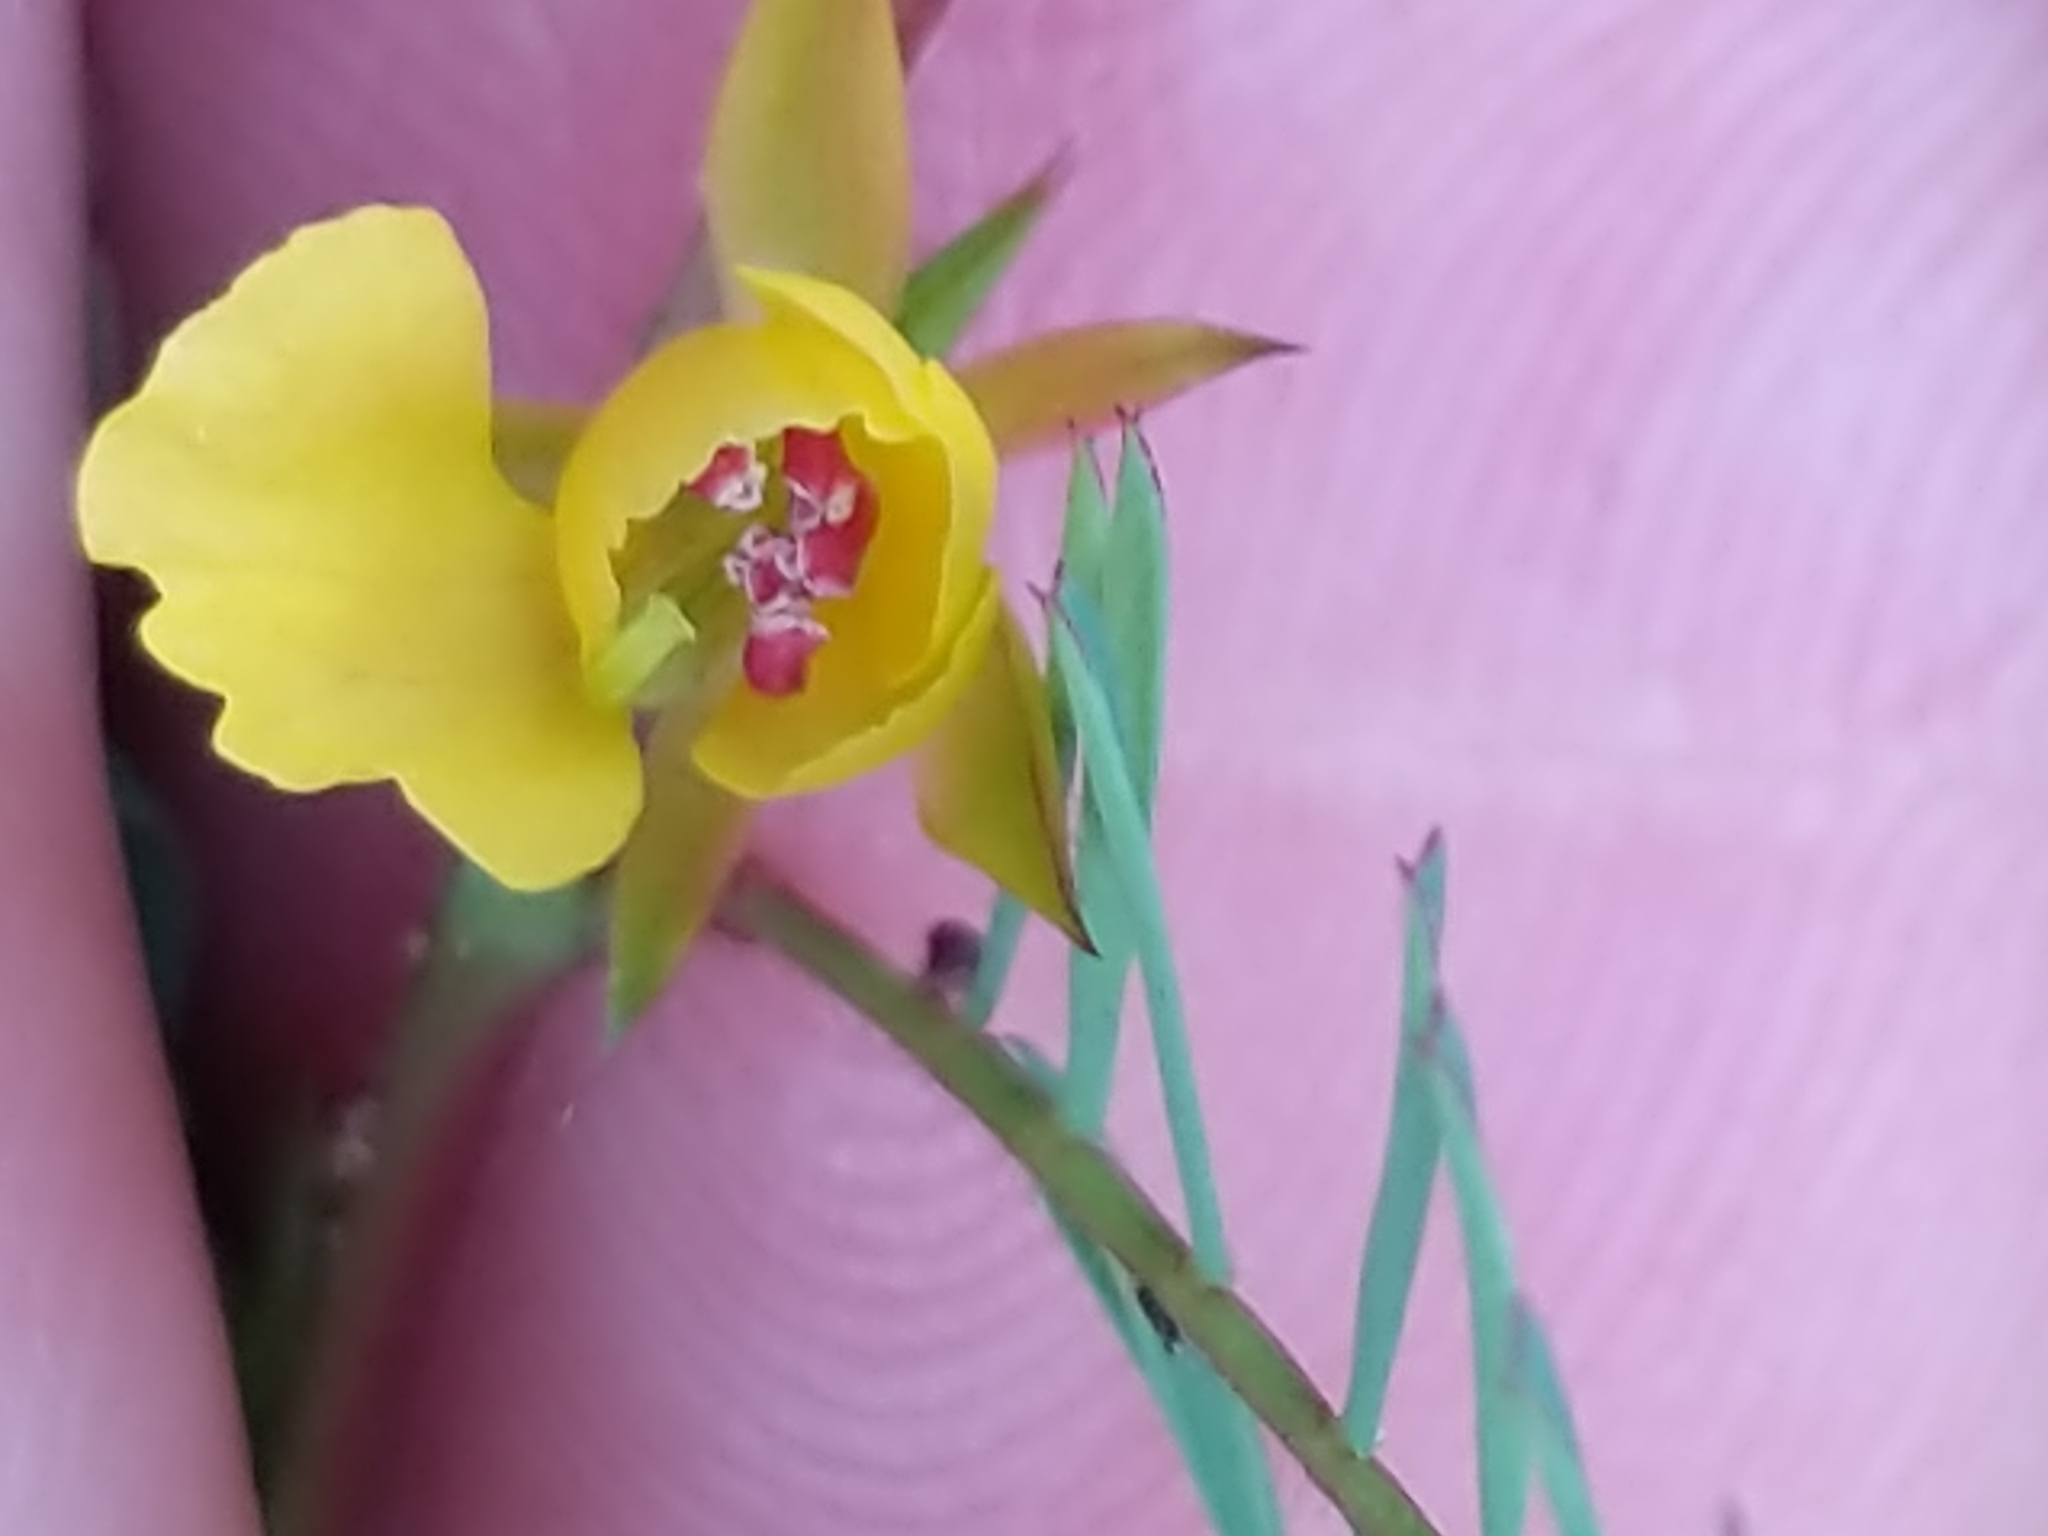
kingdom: Plantae
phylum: Tracheophyta
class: Magnoliopsida
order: Fabales
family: Fabaceae
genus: Chamaecrista
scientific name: Chamaecrista nictitans
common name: Sensitive cassia
